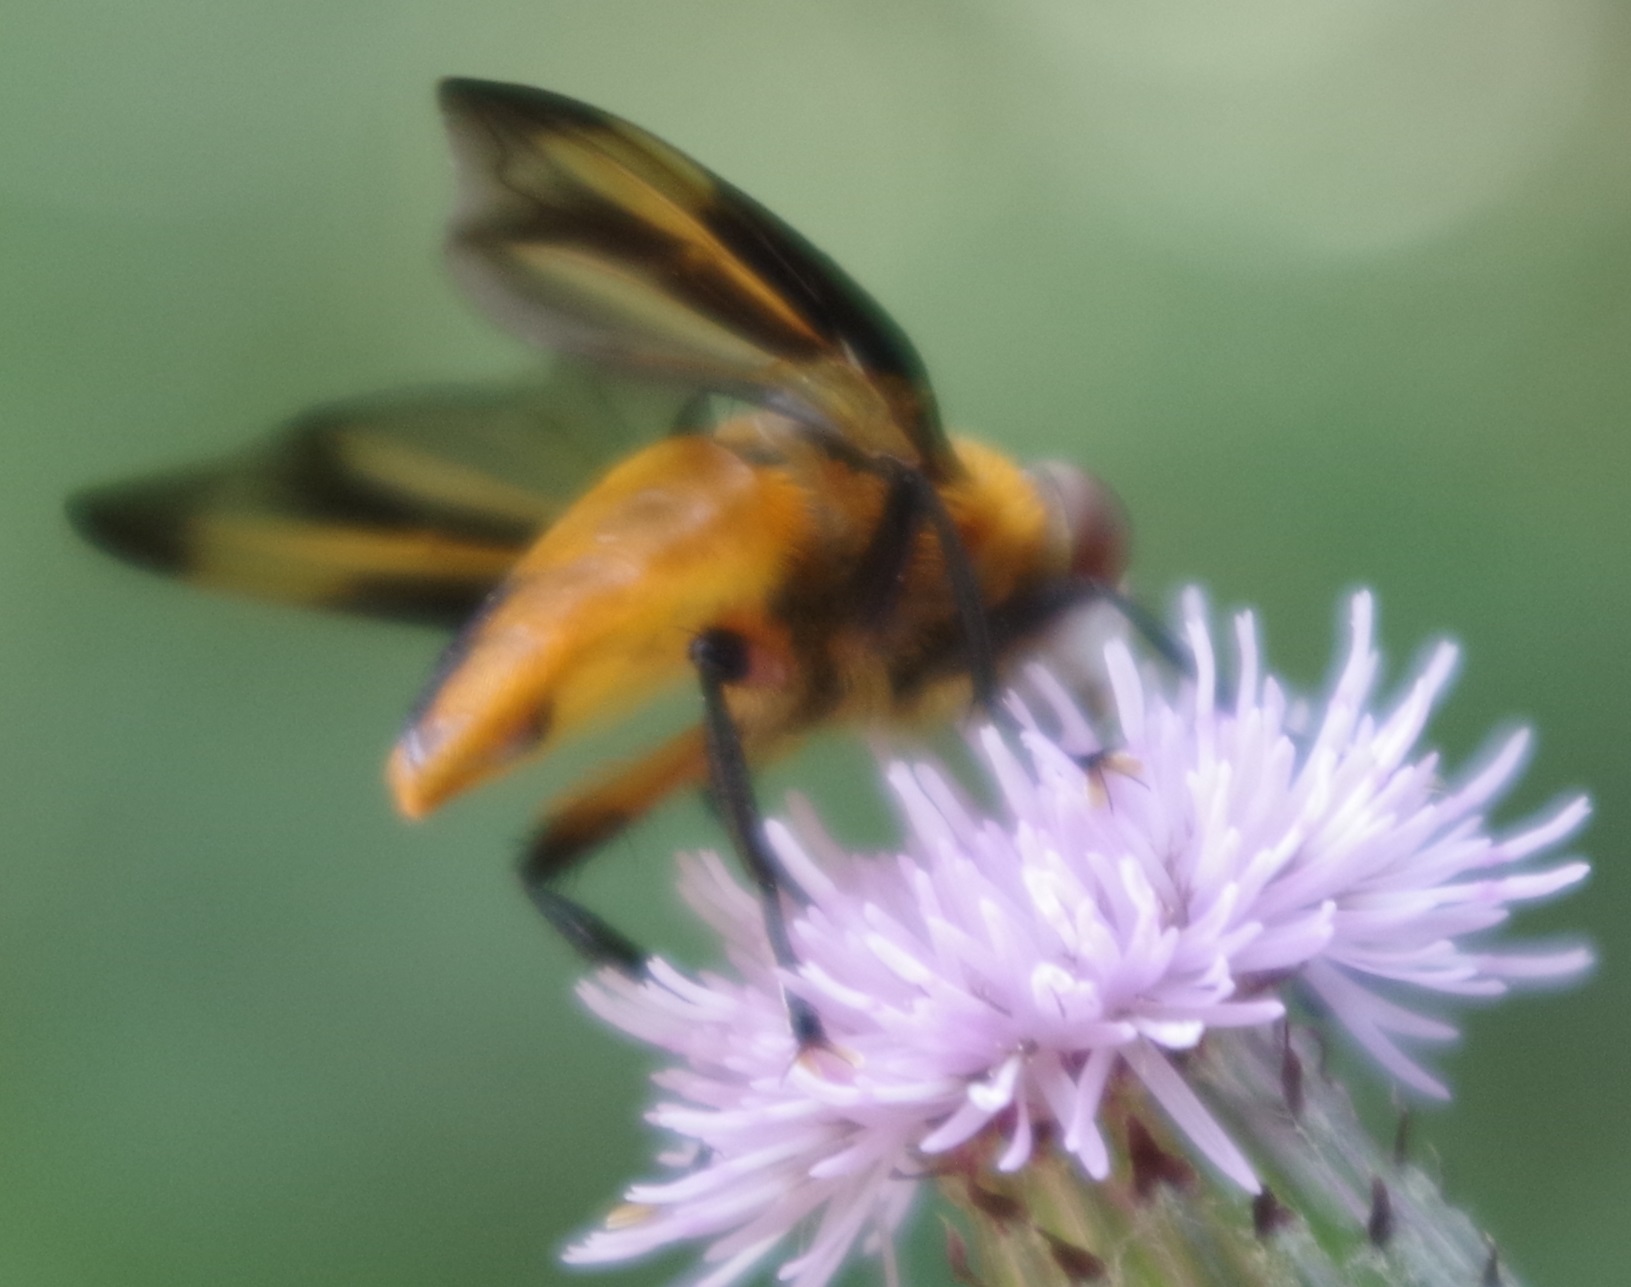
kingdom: Animalia
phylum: Arthropoda
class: Insecta
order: Diptera
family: Tachinidae
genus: Phasia
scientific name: Phasia hemiptera
